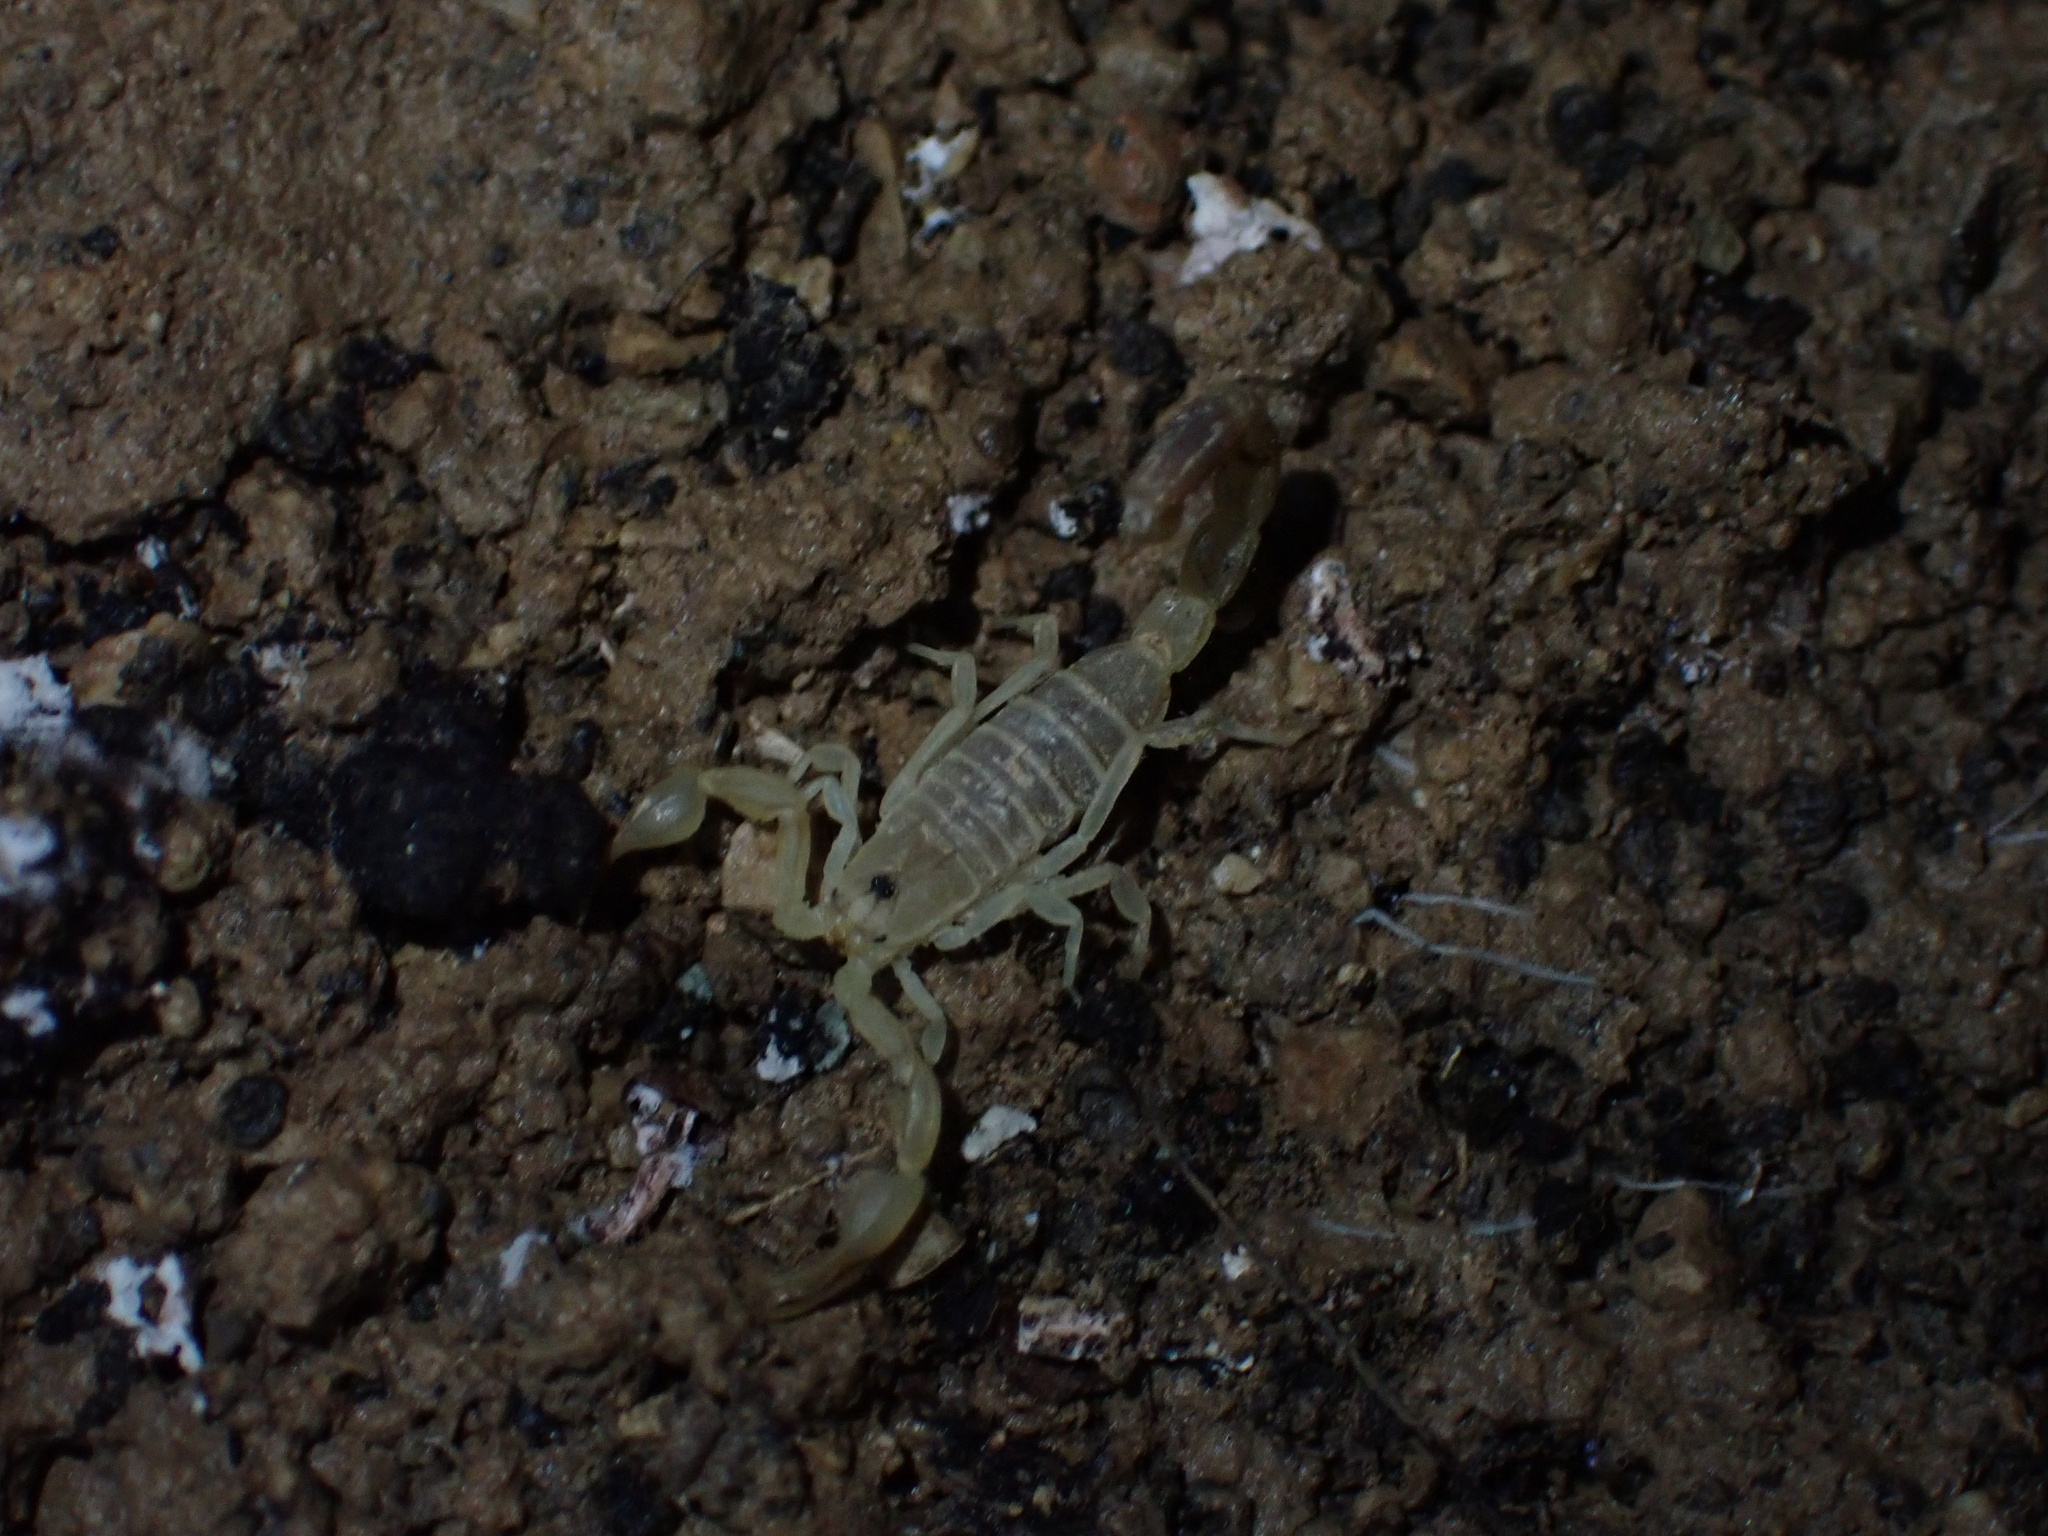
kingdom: Animalia
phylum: Arthropoda
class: Arachnida
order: Scorpiones
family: Buthidae
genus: Razianus
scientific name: Razianus zarudnyi
